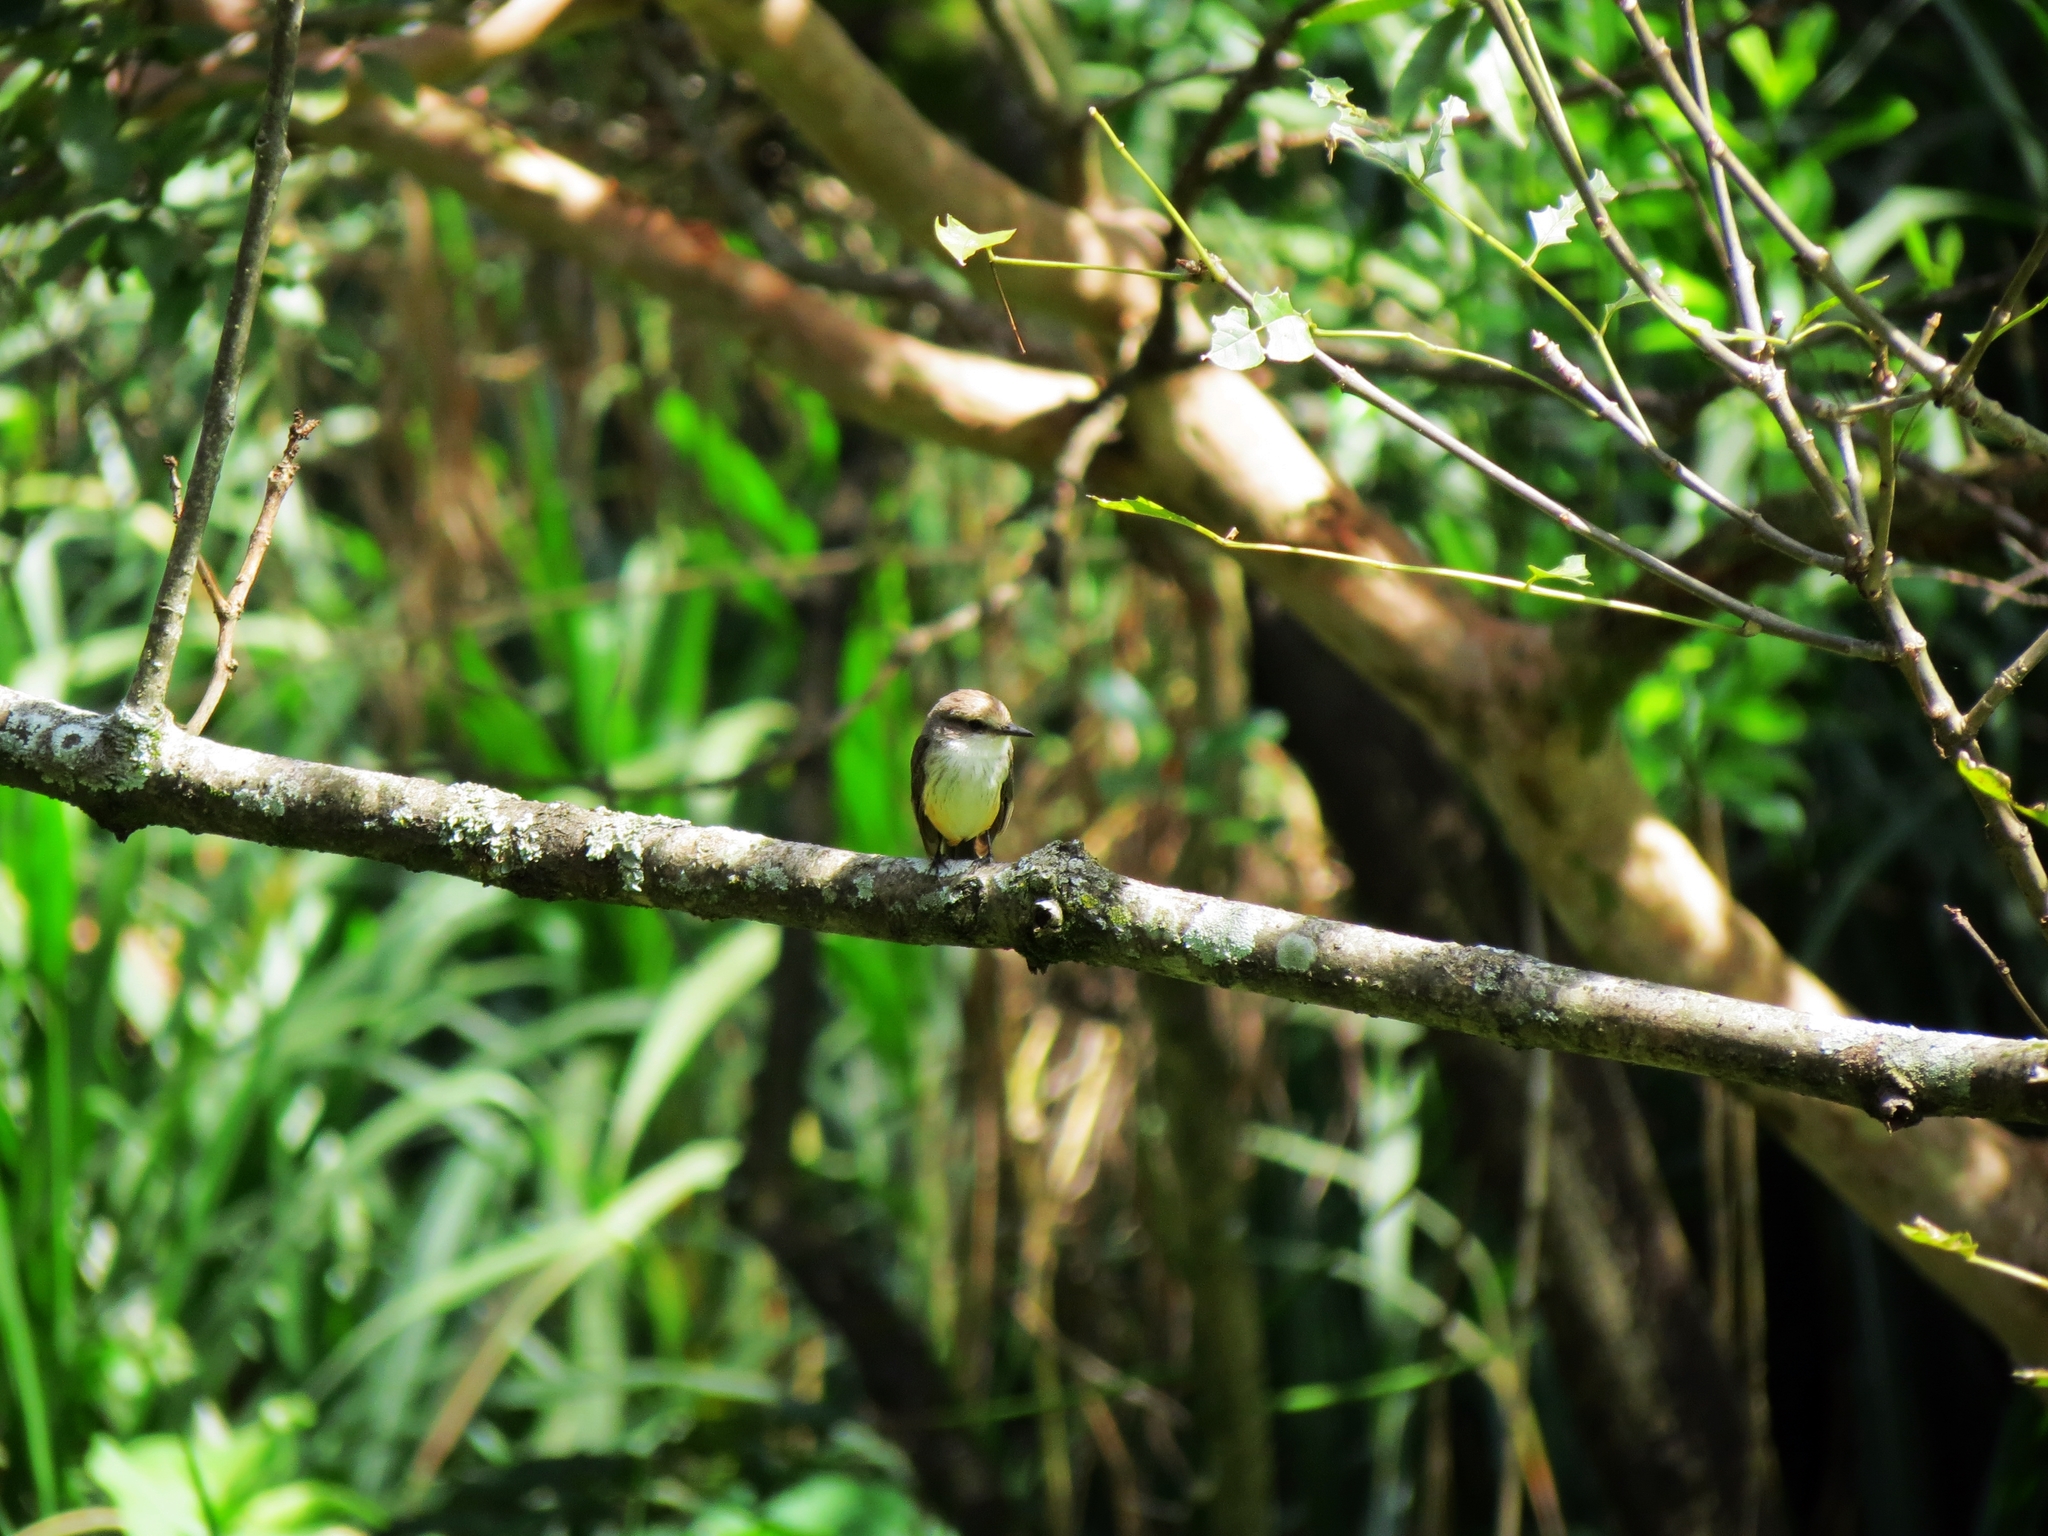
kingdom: Animalia
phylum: Chordata
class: Aves
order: Passeriformes
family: Tyrannidae
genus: Pyrocephalus
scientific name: Pyrocephalus rubinus
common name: Vermilion flycatcher
